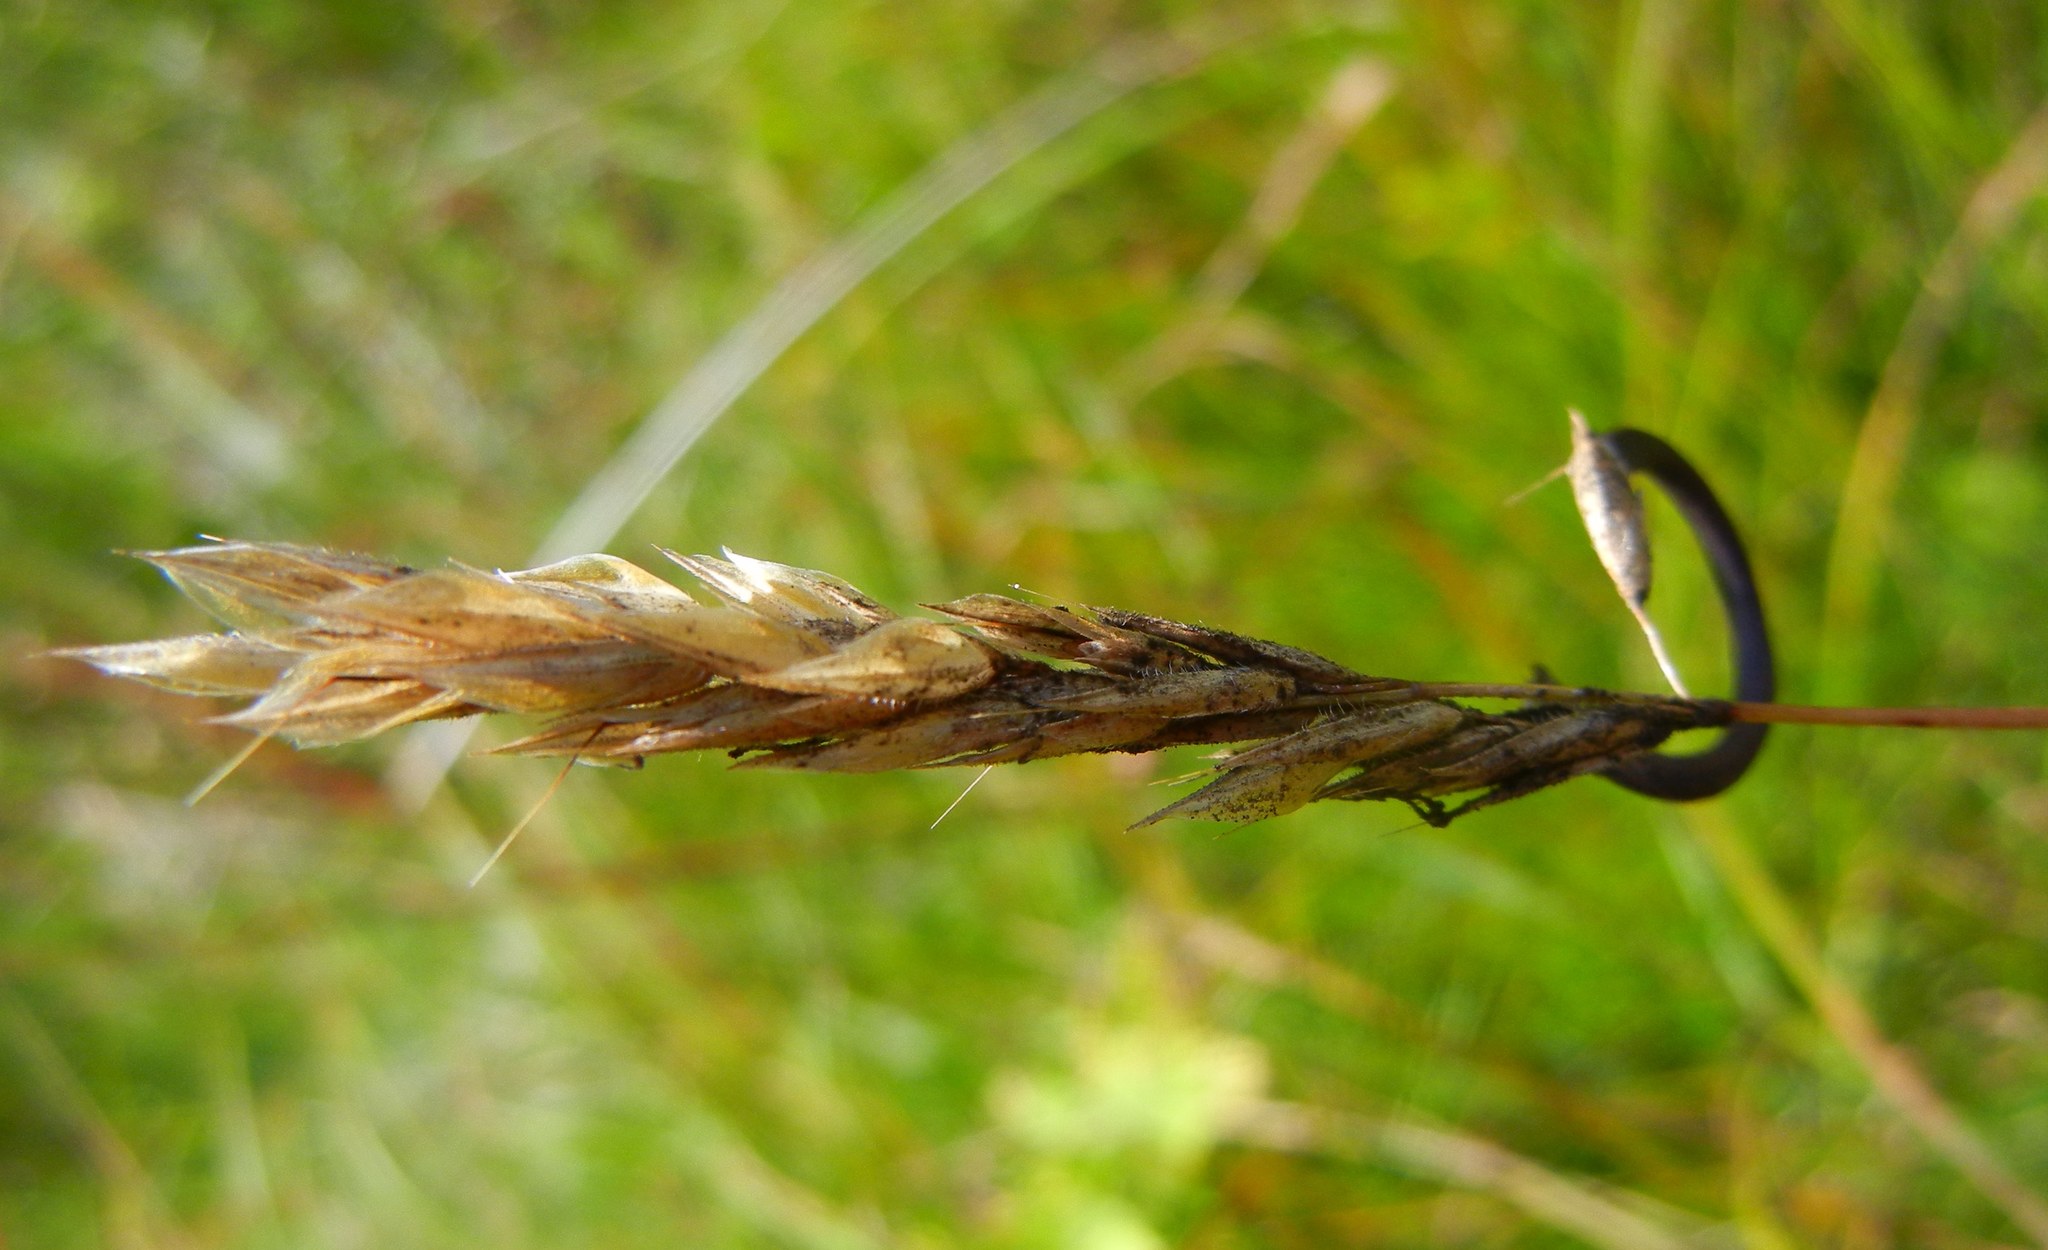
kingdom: Fungi
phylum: Ascomycota
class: Sordariomycetes
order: Hypocreales
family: Clavicipitaceae
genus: Claviceps
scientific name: Claviceps purpurea
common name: Rye ergot
